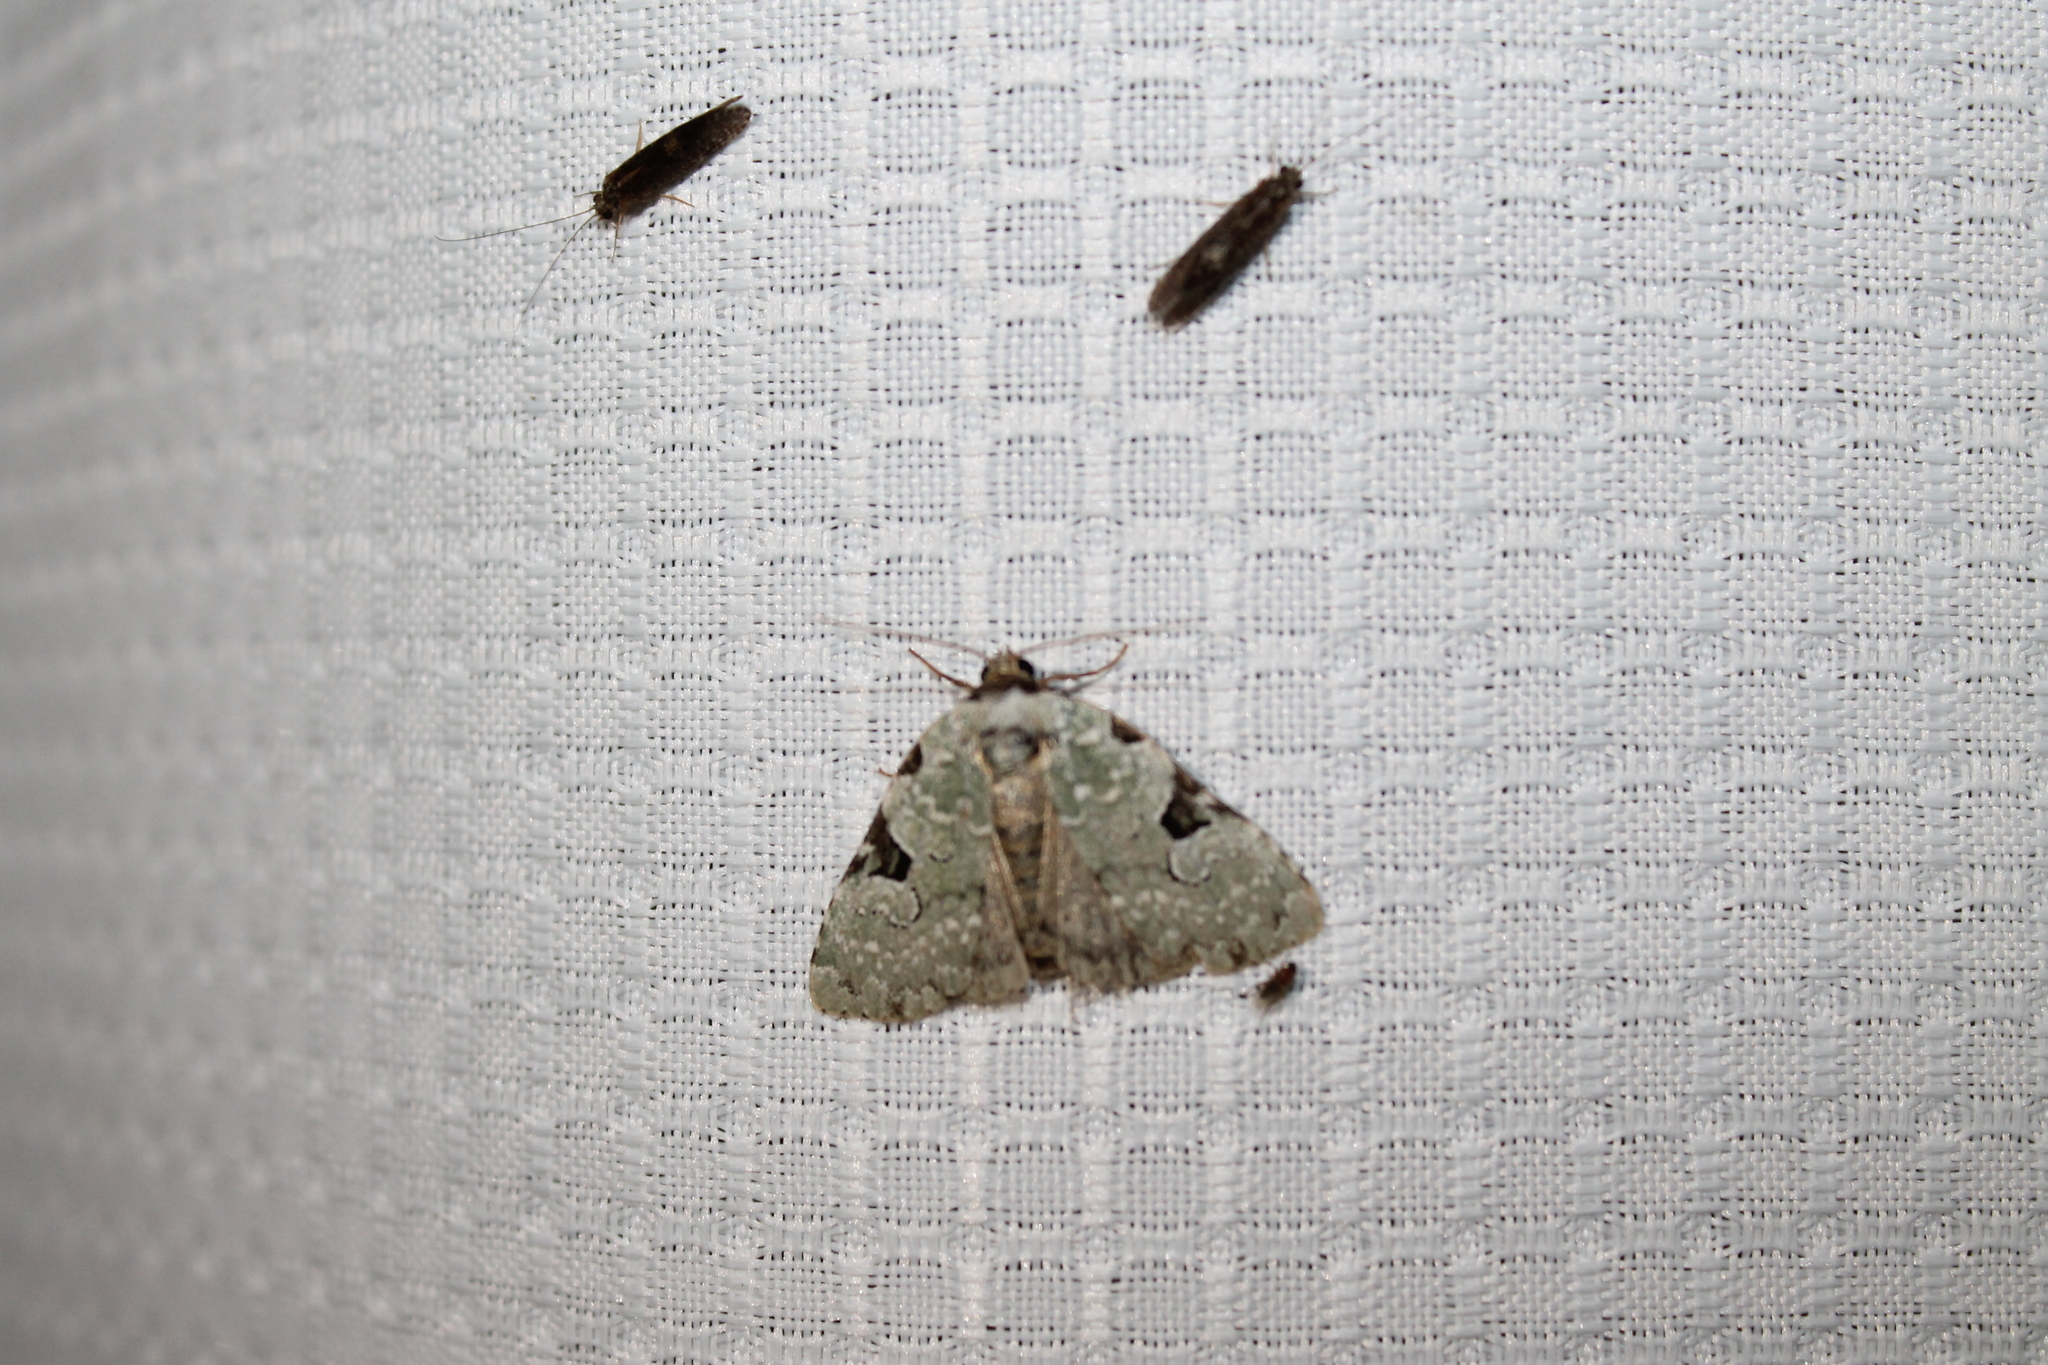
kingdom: Animalia
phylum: Arthropoda
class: Insecta
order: Lepidoptera
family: Noctuidae
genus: Leuconycta
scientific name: Leuconycta diphteroides
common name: Green leuconycta moth
